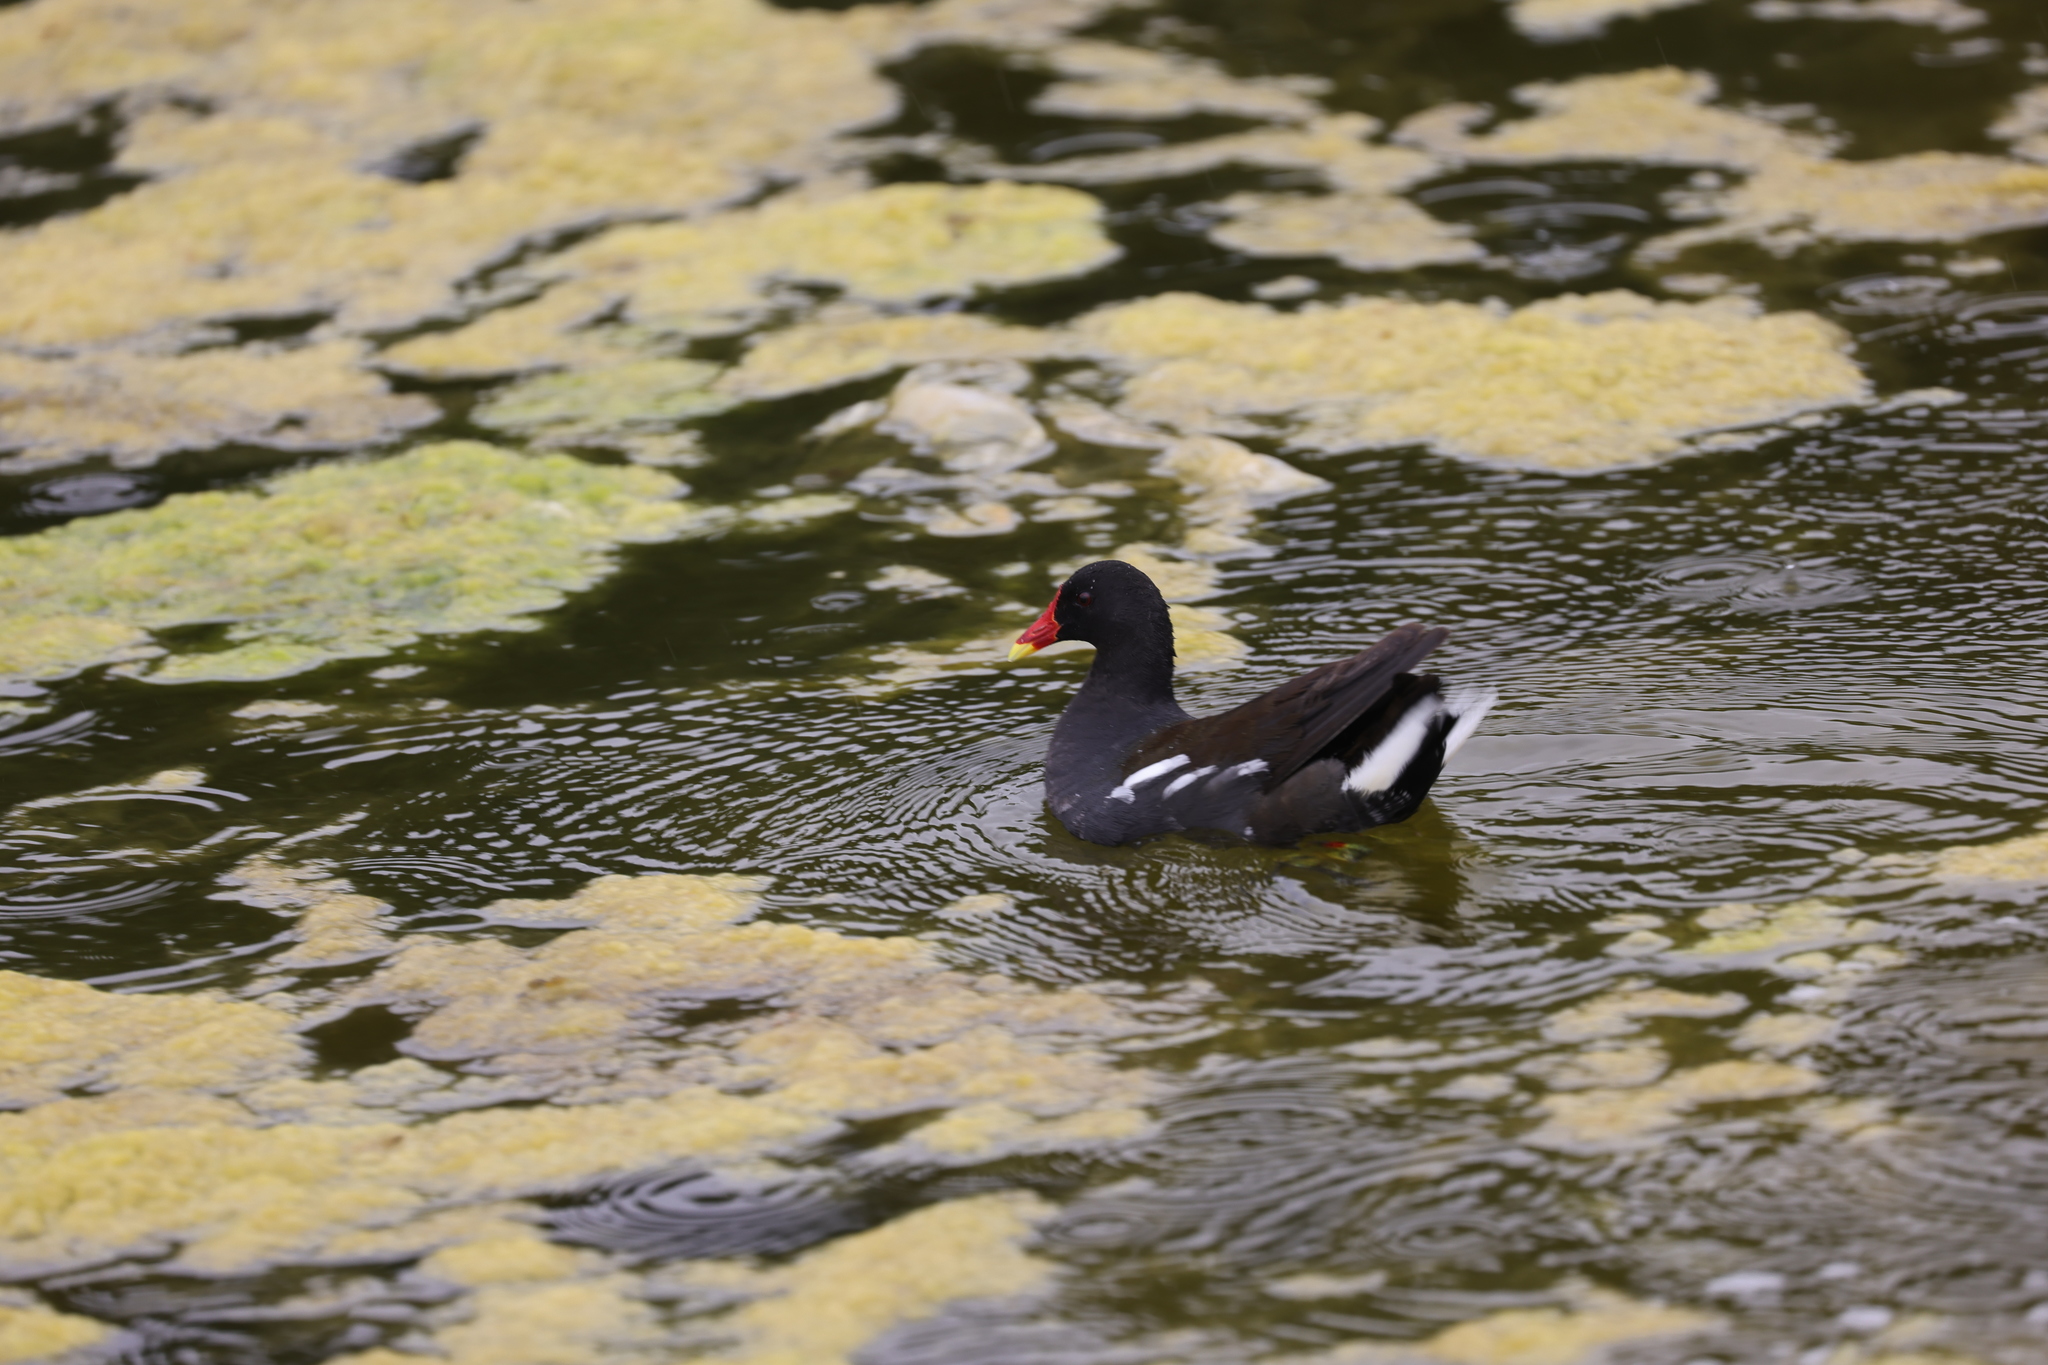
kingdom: Animalia
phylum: Chordata
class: Aves
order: Gruiformes
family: Rallidae
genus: Gallinula
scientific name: Gallinula chloropus
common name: Common moorhen
